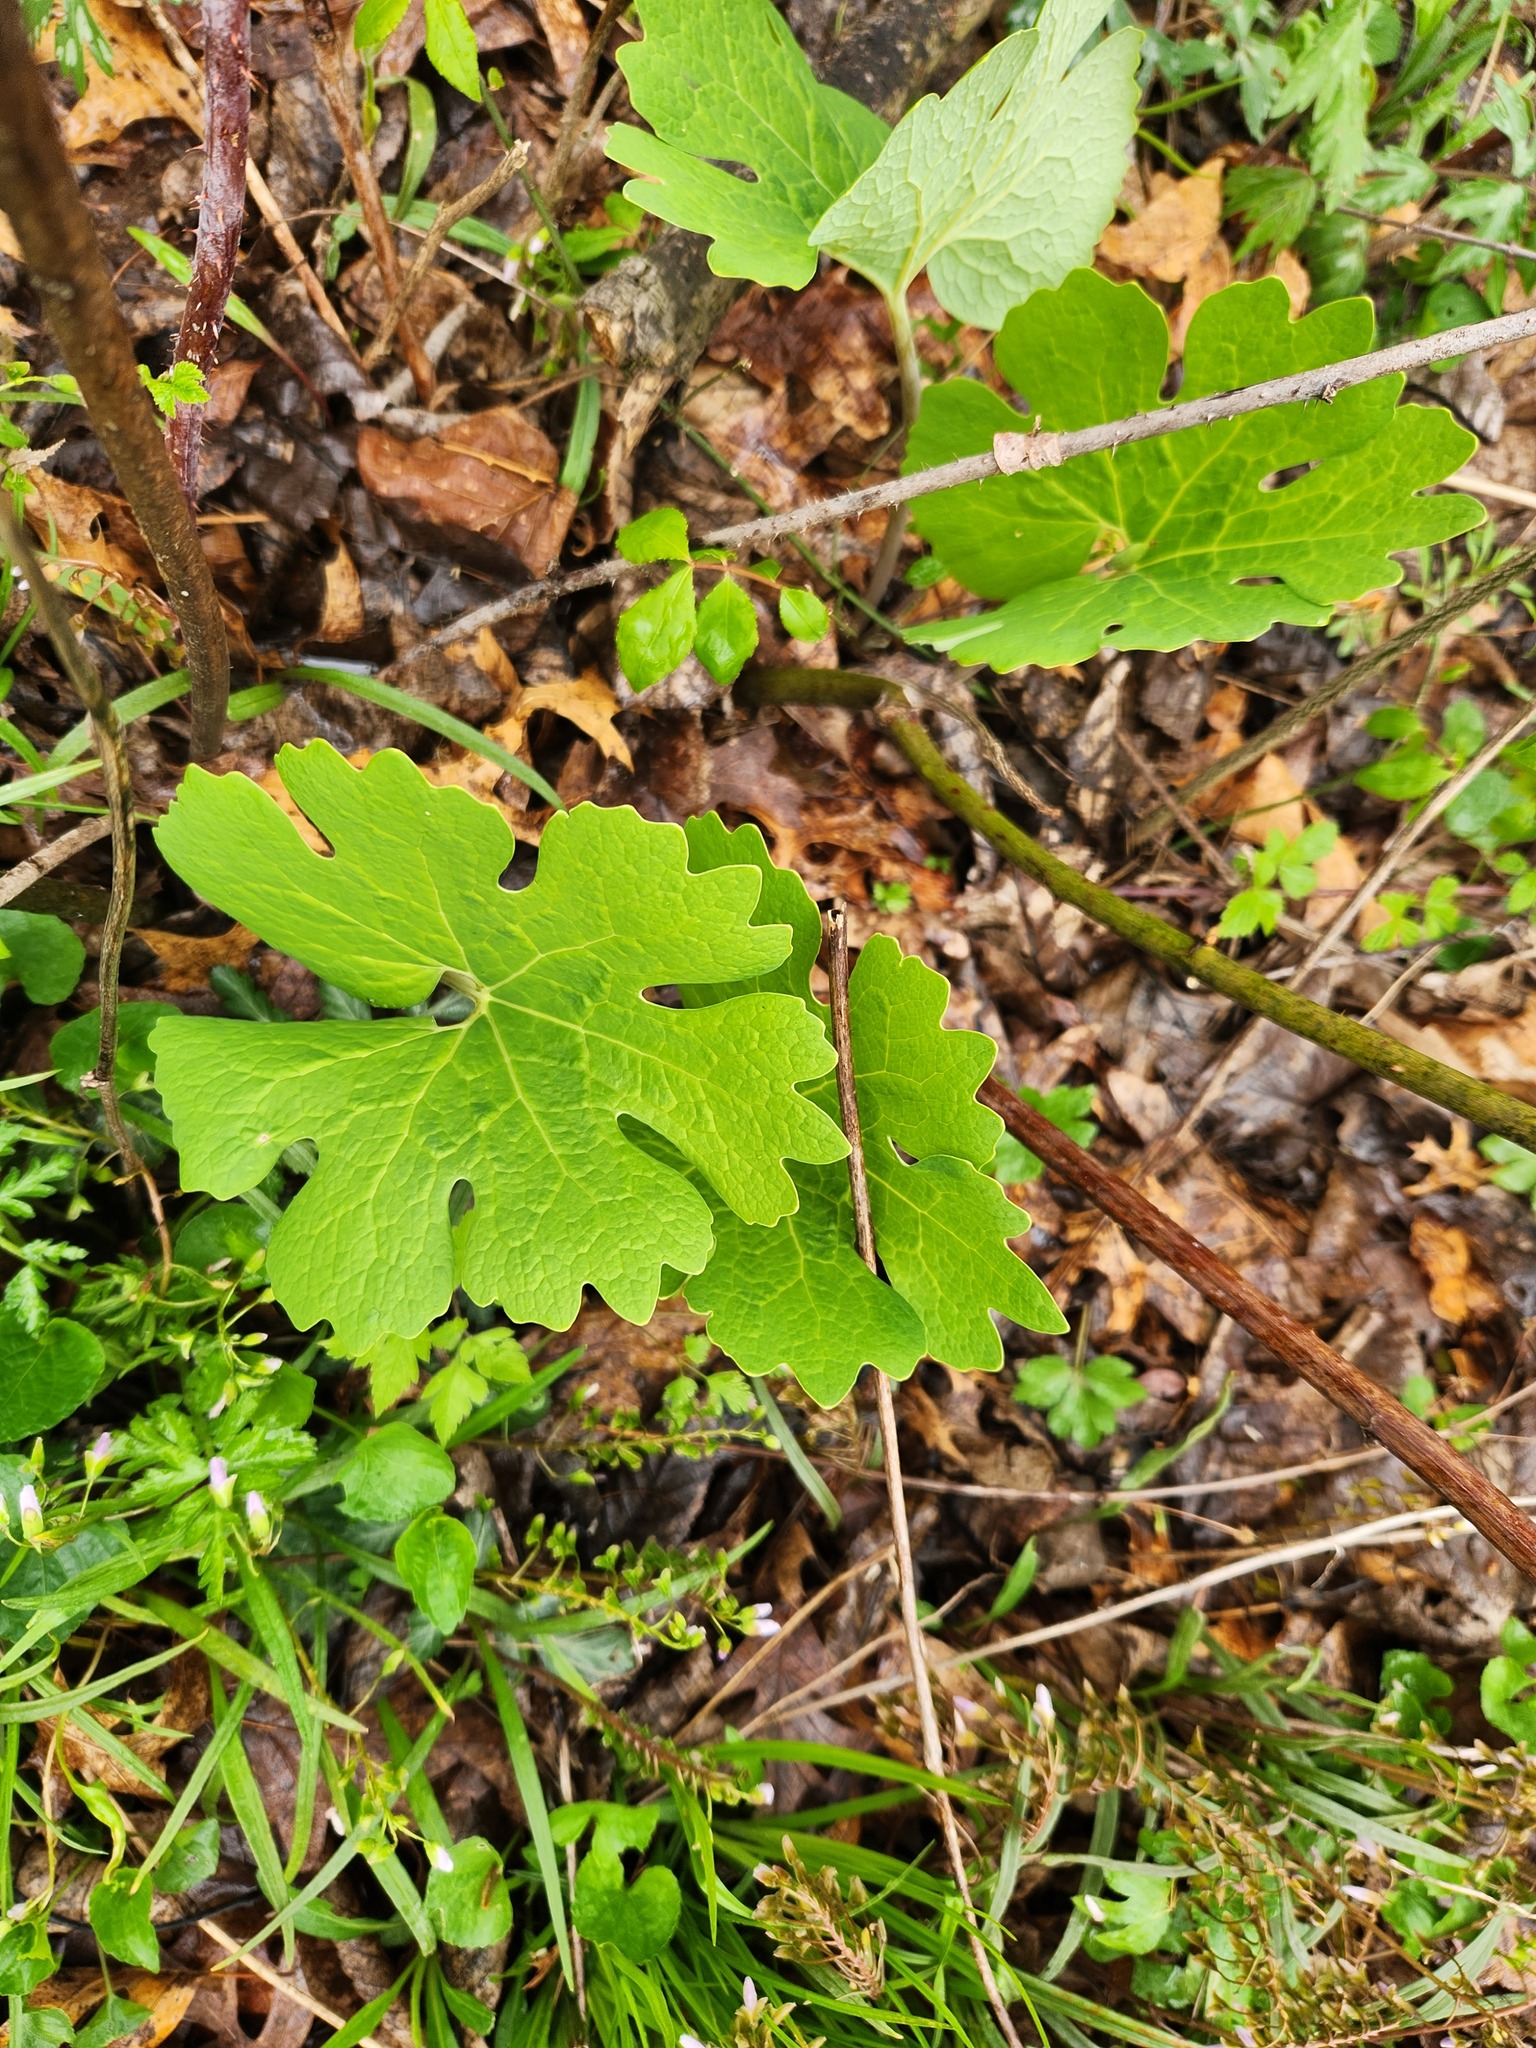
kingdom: Plantae
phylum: Tracheophyta
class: Magnoliopsida
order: Ranunculales
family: Papaveraceae
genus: Sanguinaria
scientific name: Sanguinaria canadensis
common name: Bloodroot
